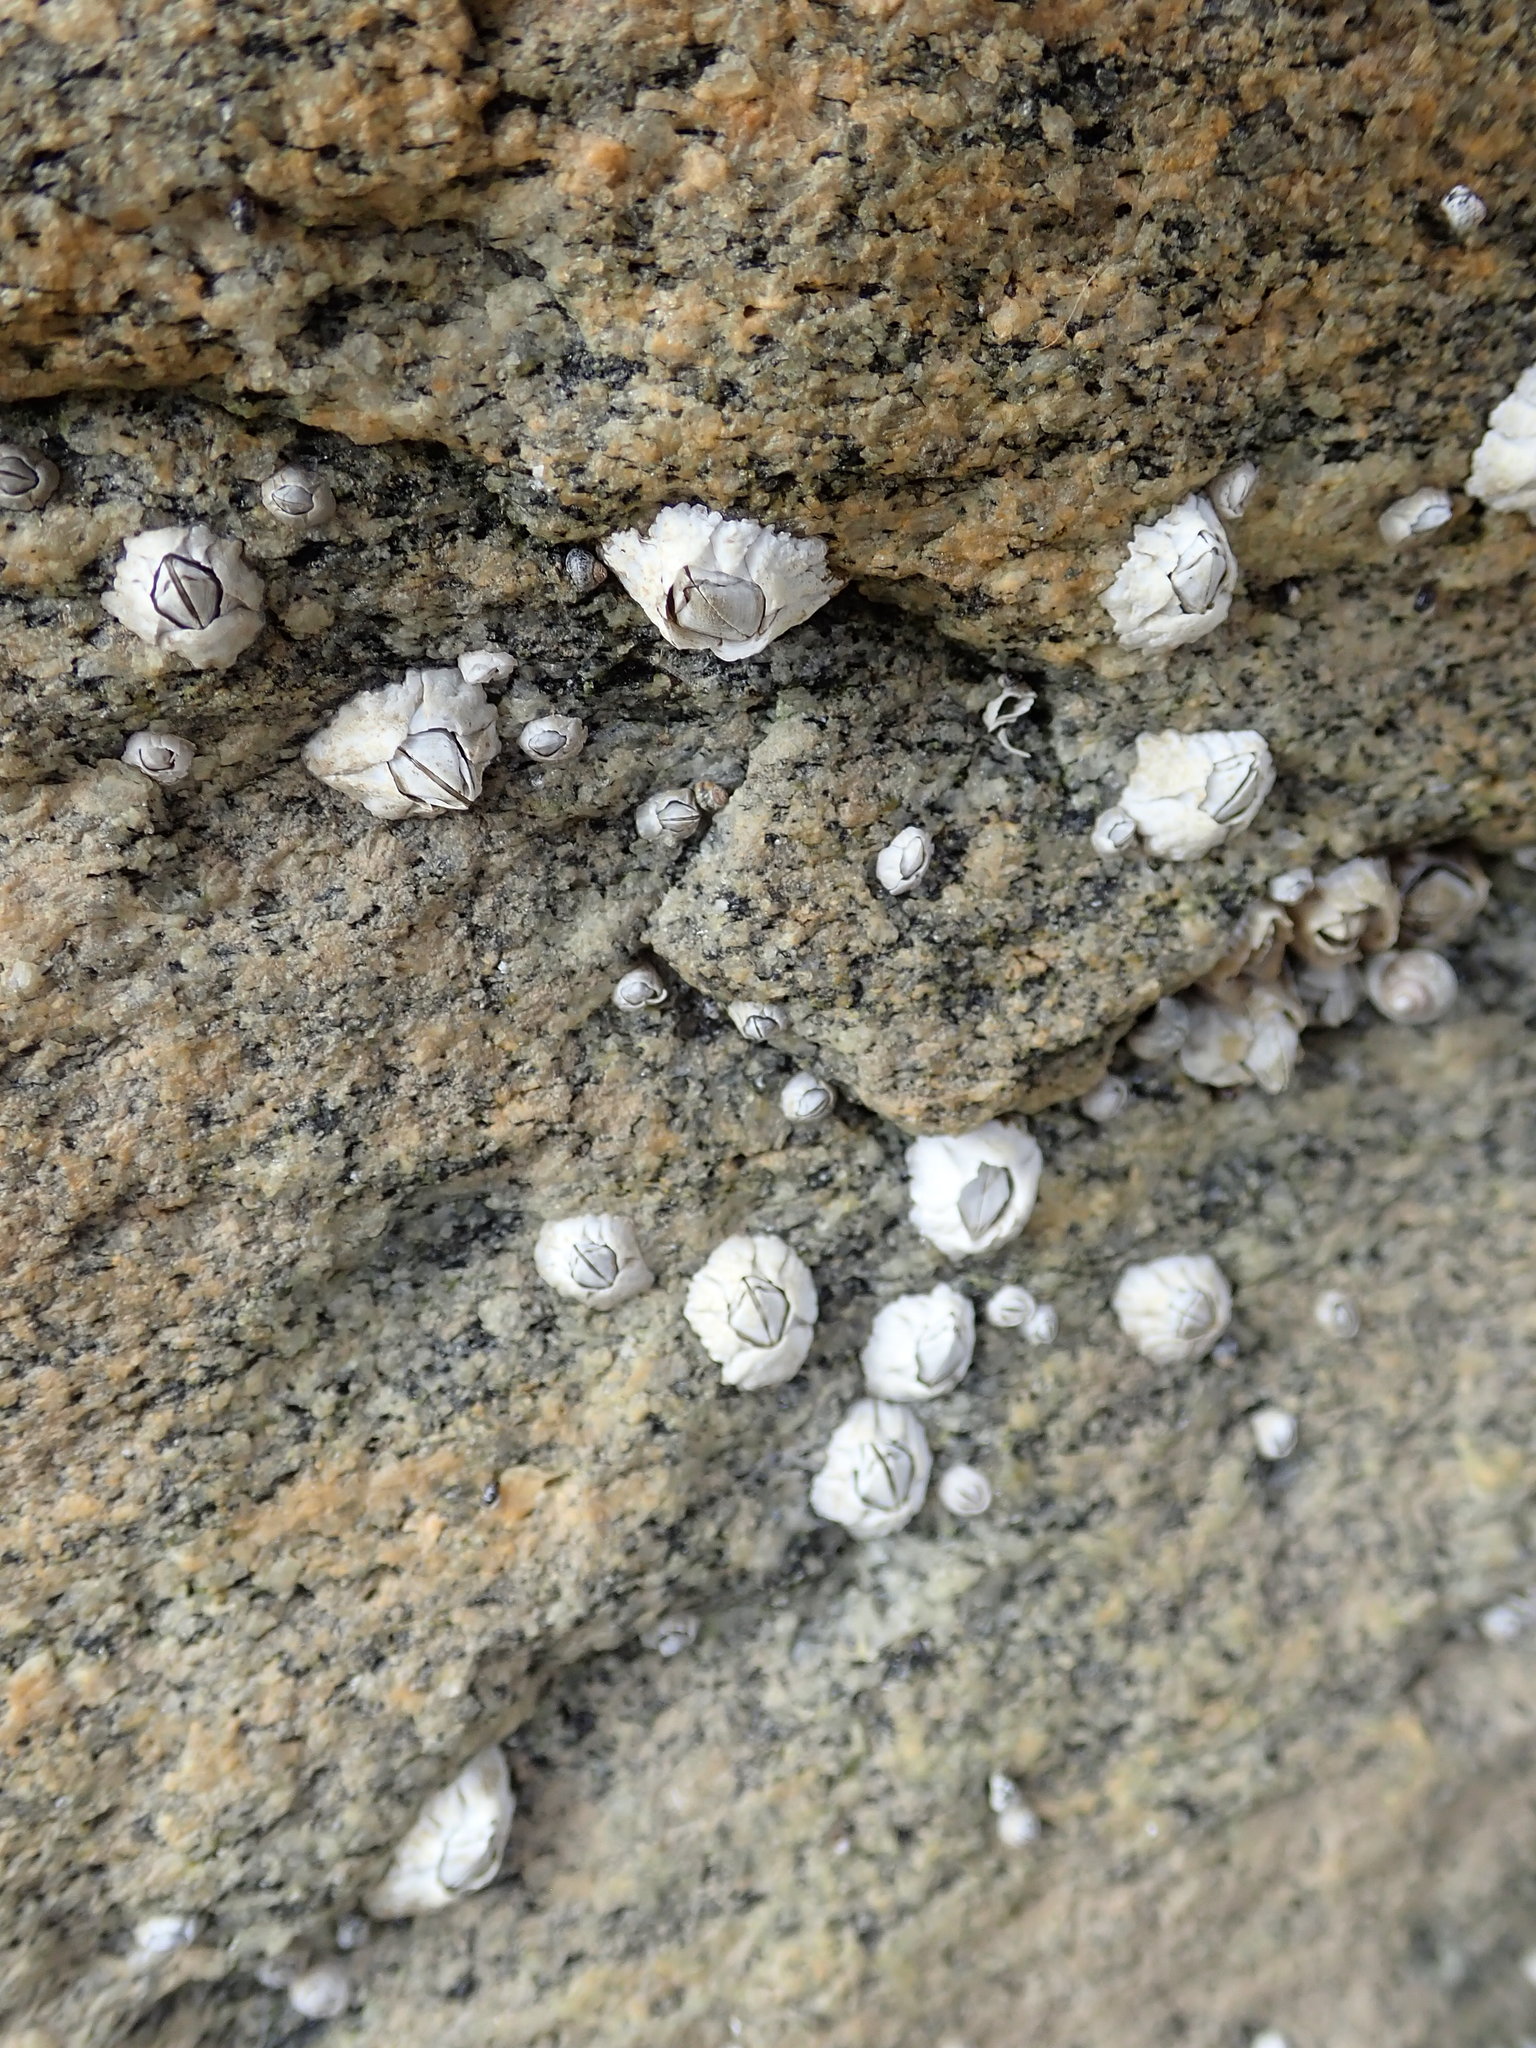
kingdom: Animalia
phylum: Arthropoda
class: Maxillopoda
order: Sessilia
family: Archaeobalanidae
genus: Semibalanus
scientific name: Semibalanus balanoides
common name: Acorn barnacle
